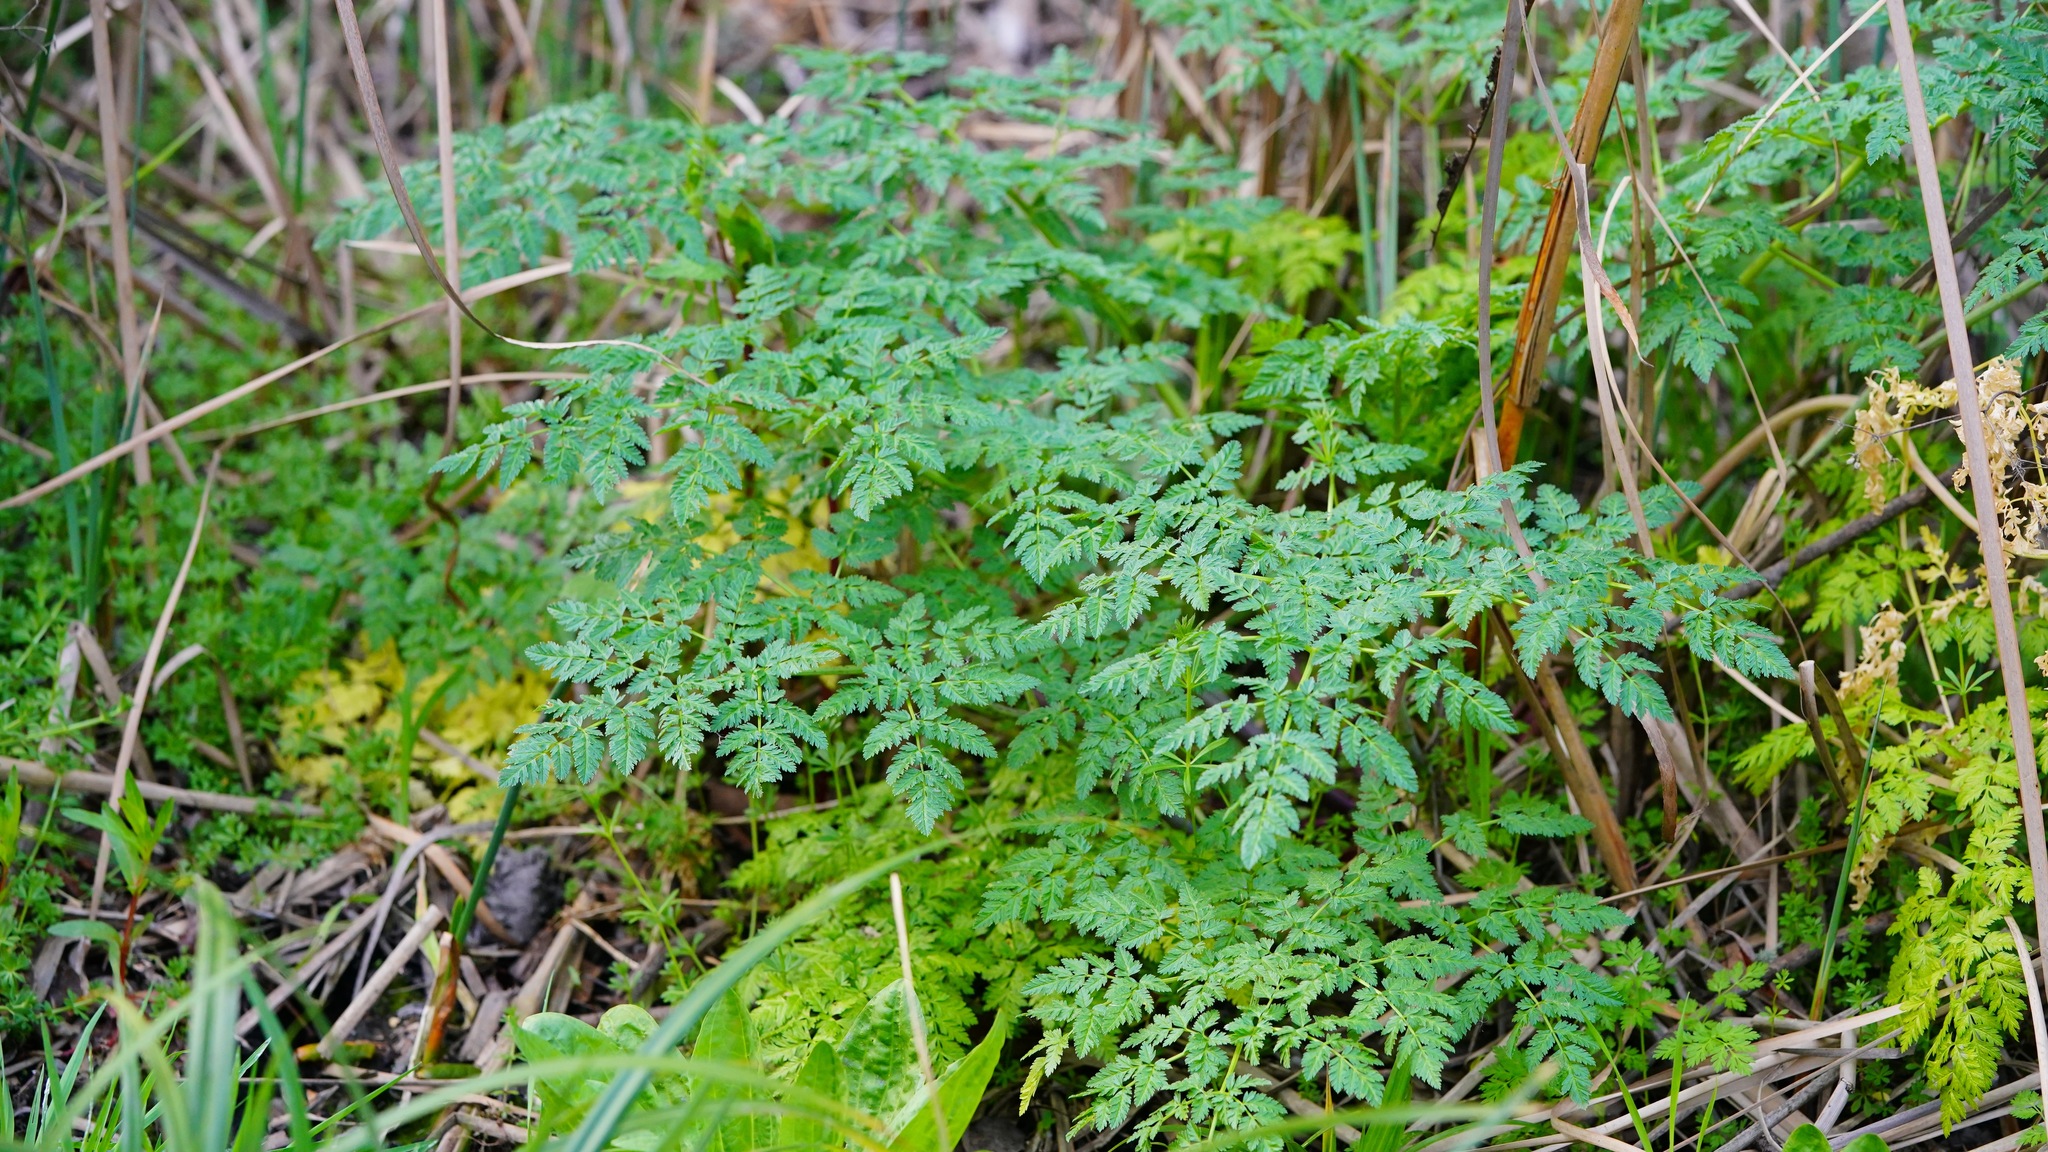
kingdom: Plantae
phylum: Tracheophyta
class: Magnoliopsida
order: Apiales
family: Apiaceae
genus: Conium
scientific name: Conium maculatum
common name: Hemlock
